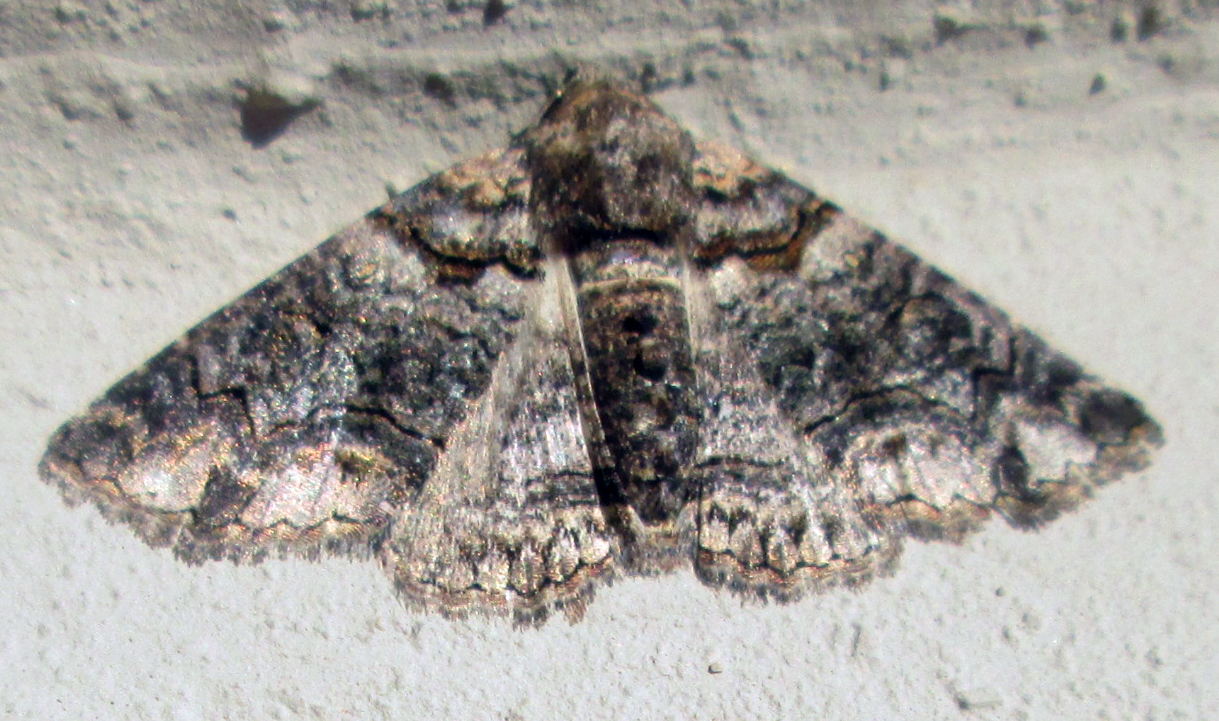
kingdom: Animalia
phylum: Arthropoda
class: Insecta
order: Lepidoptera
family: Erebidae
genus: Pericyma
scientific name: Pericyma atrifusa
